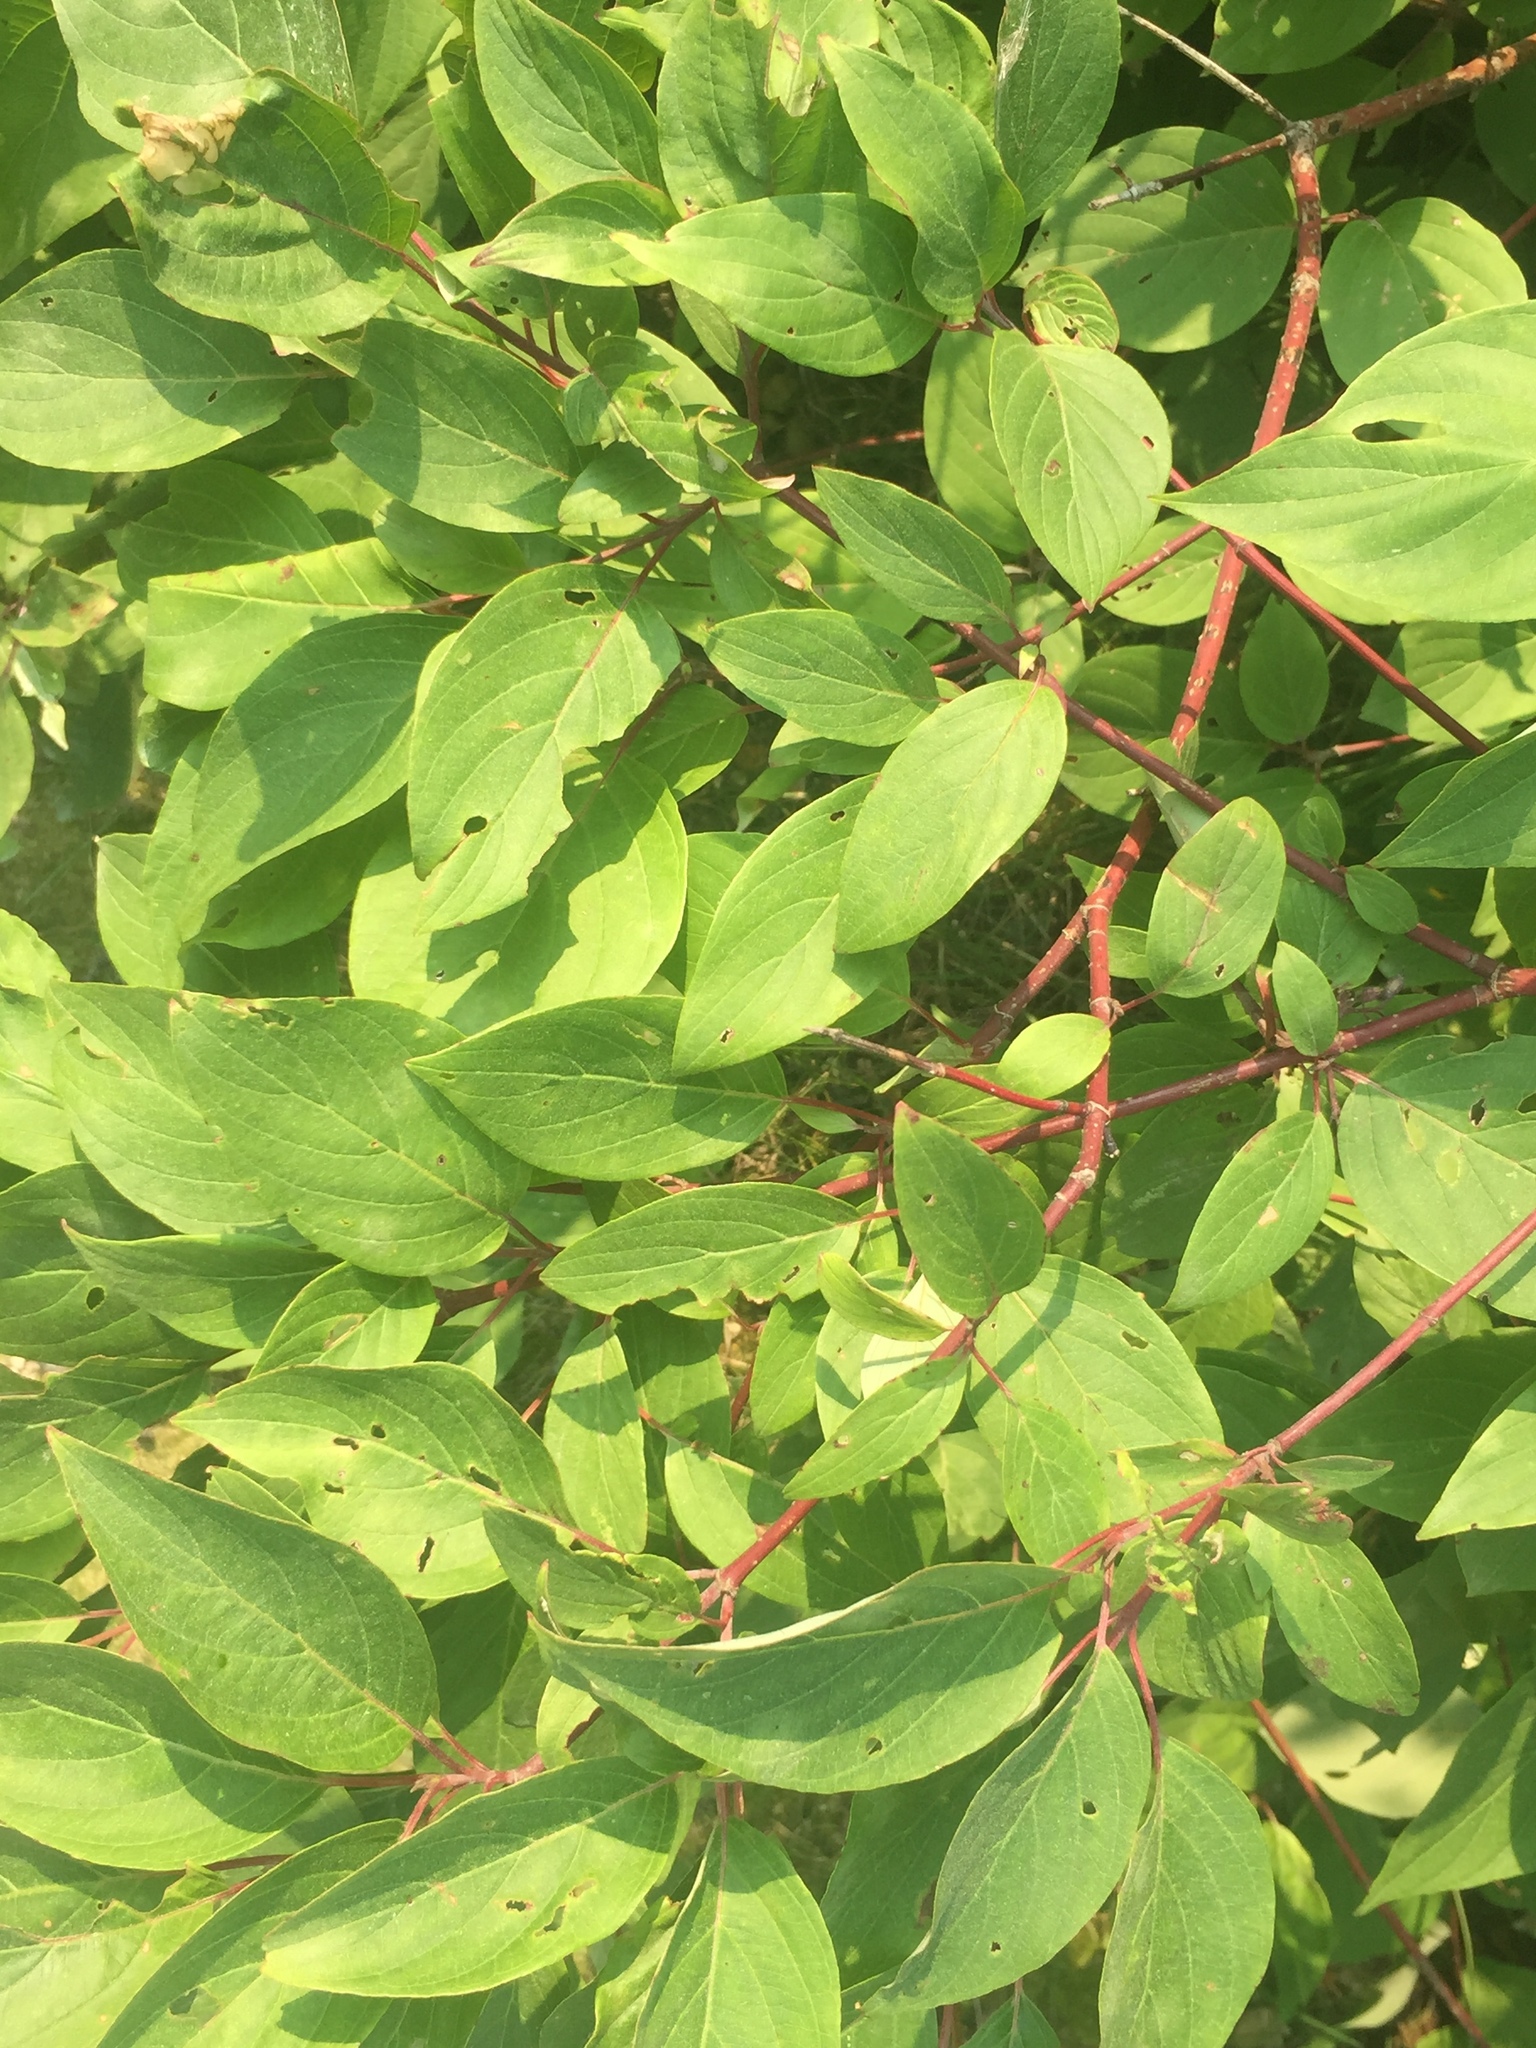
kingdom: Plantae
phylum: Tracheophyta
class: Magnoliopsida
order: Cornales
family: Cornaceae
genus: Cornus
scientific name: Cornus sericea
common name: Red-osier dogwood
